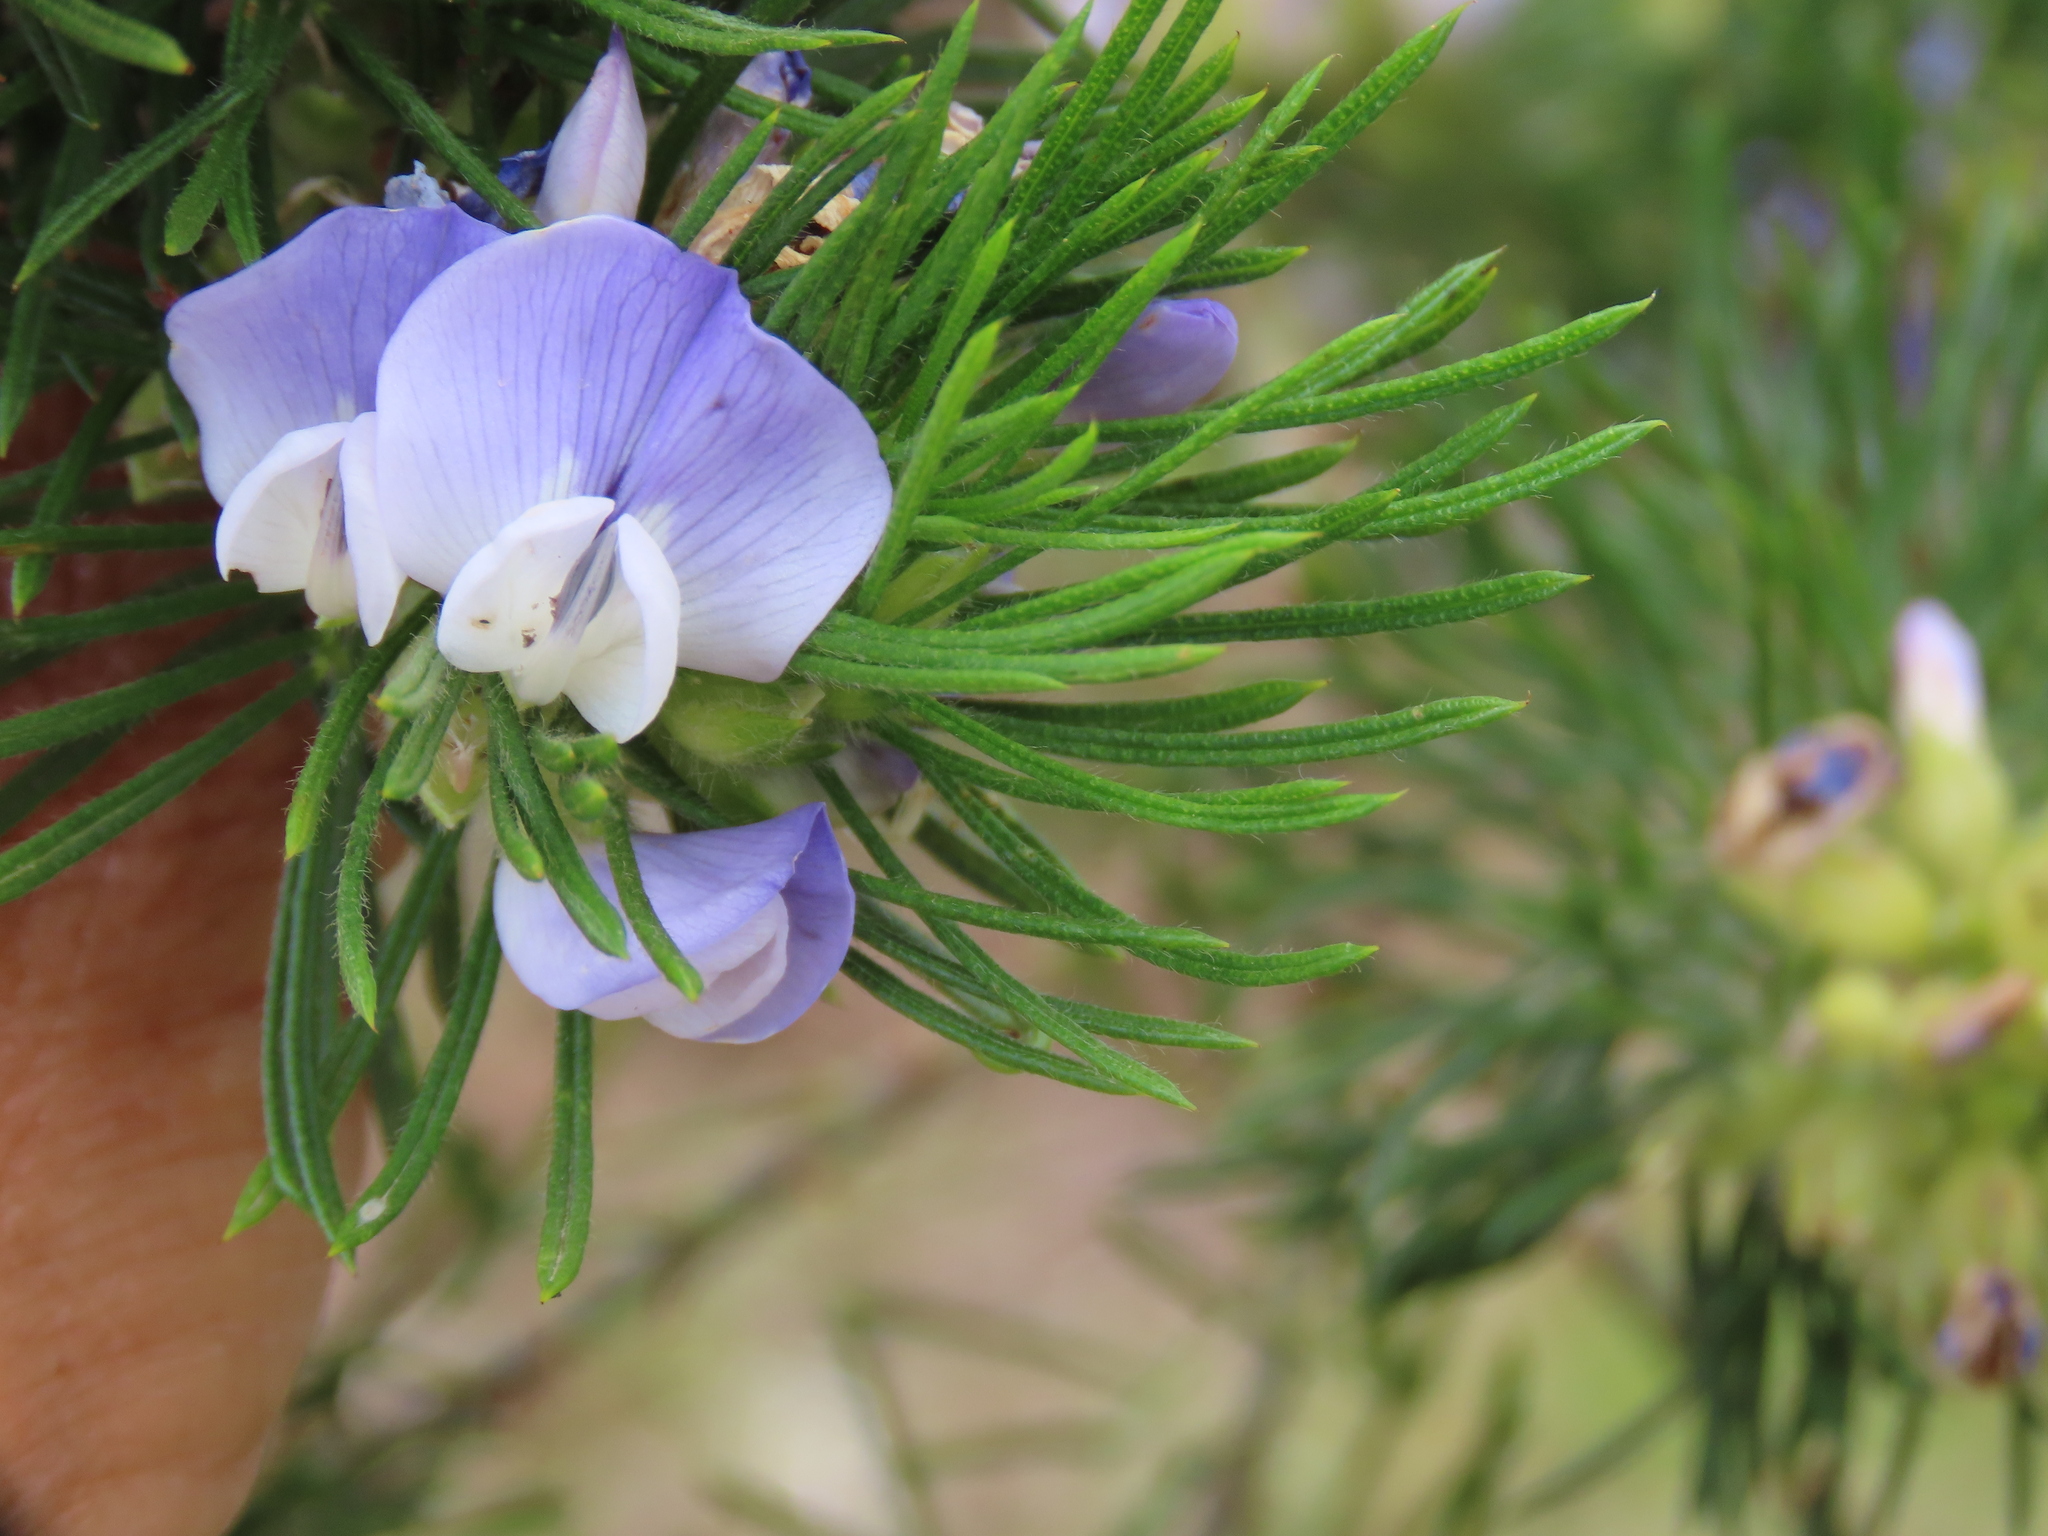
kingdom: Plantae
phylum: Tracheophyta
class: Magnoliopsida
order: Fabales
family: Fabaceae
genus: Psoralea
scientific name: Psoralea pinnata
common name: African scurfpea
